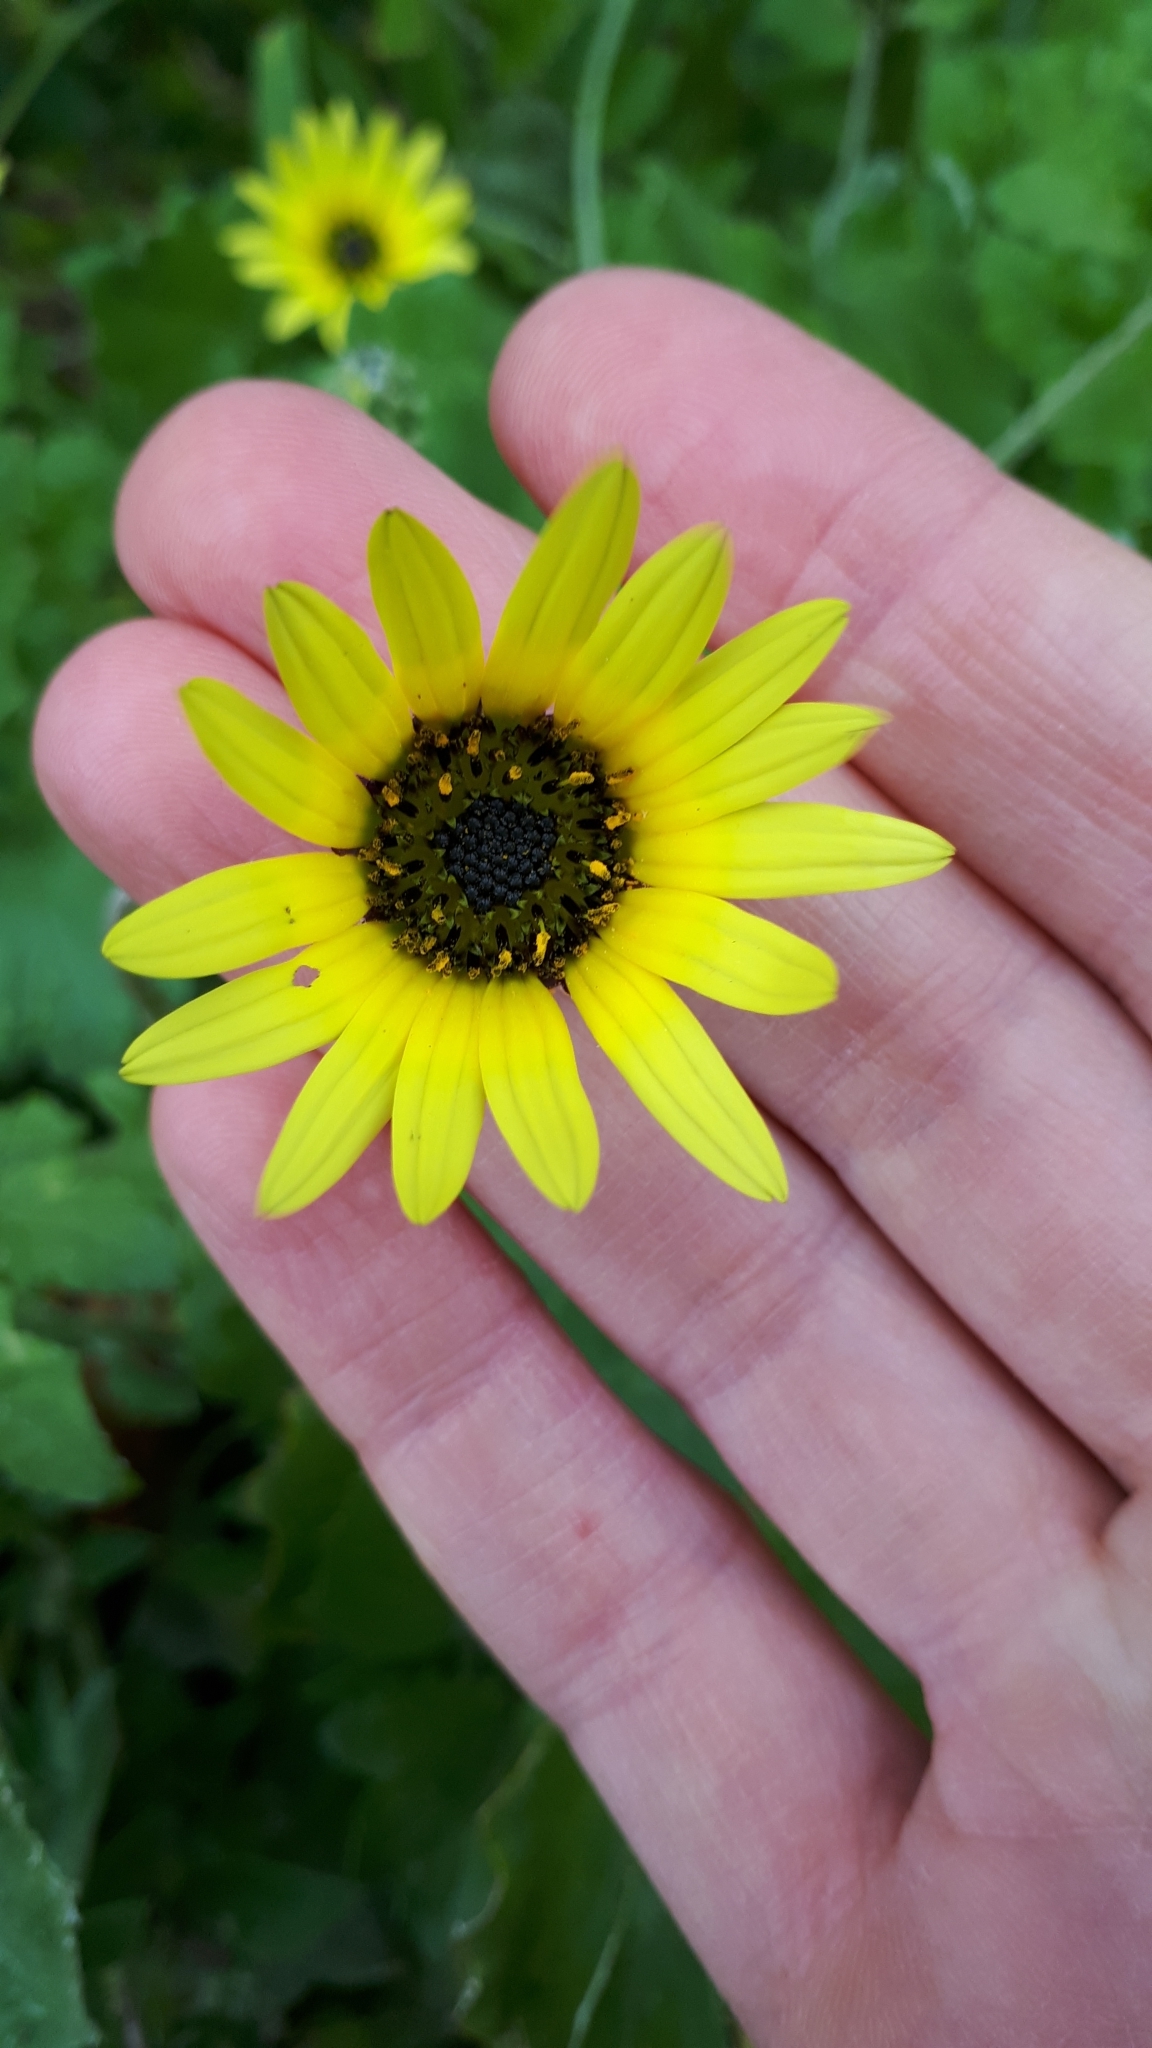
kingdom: Plantae
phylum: Tracheophyta
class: Magnoliopsida
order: Asterales
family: Asteraceae
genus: Arctotheca
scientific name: Arctotheca calendula
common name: Capeweed
